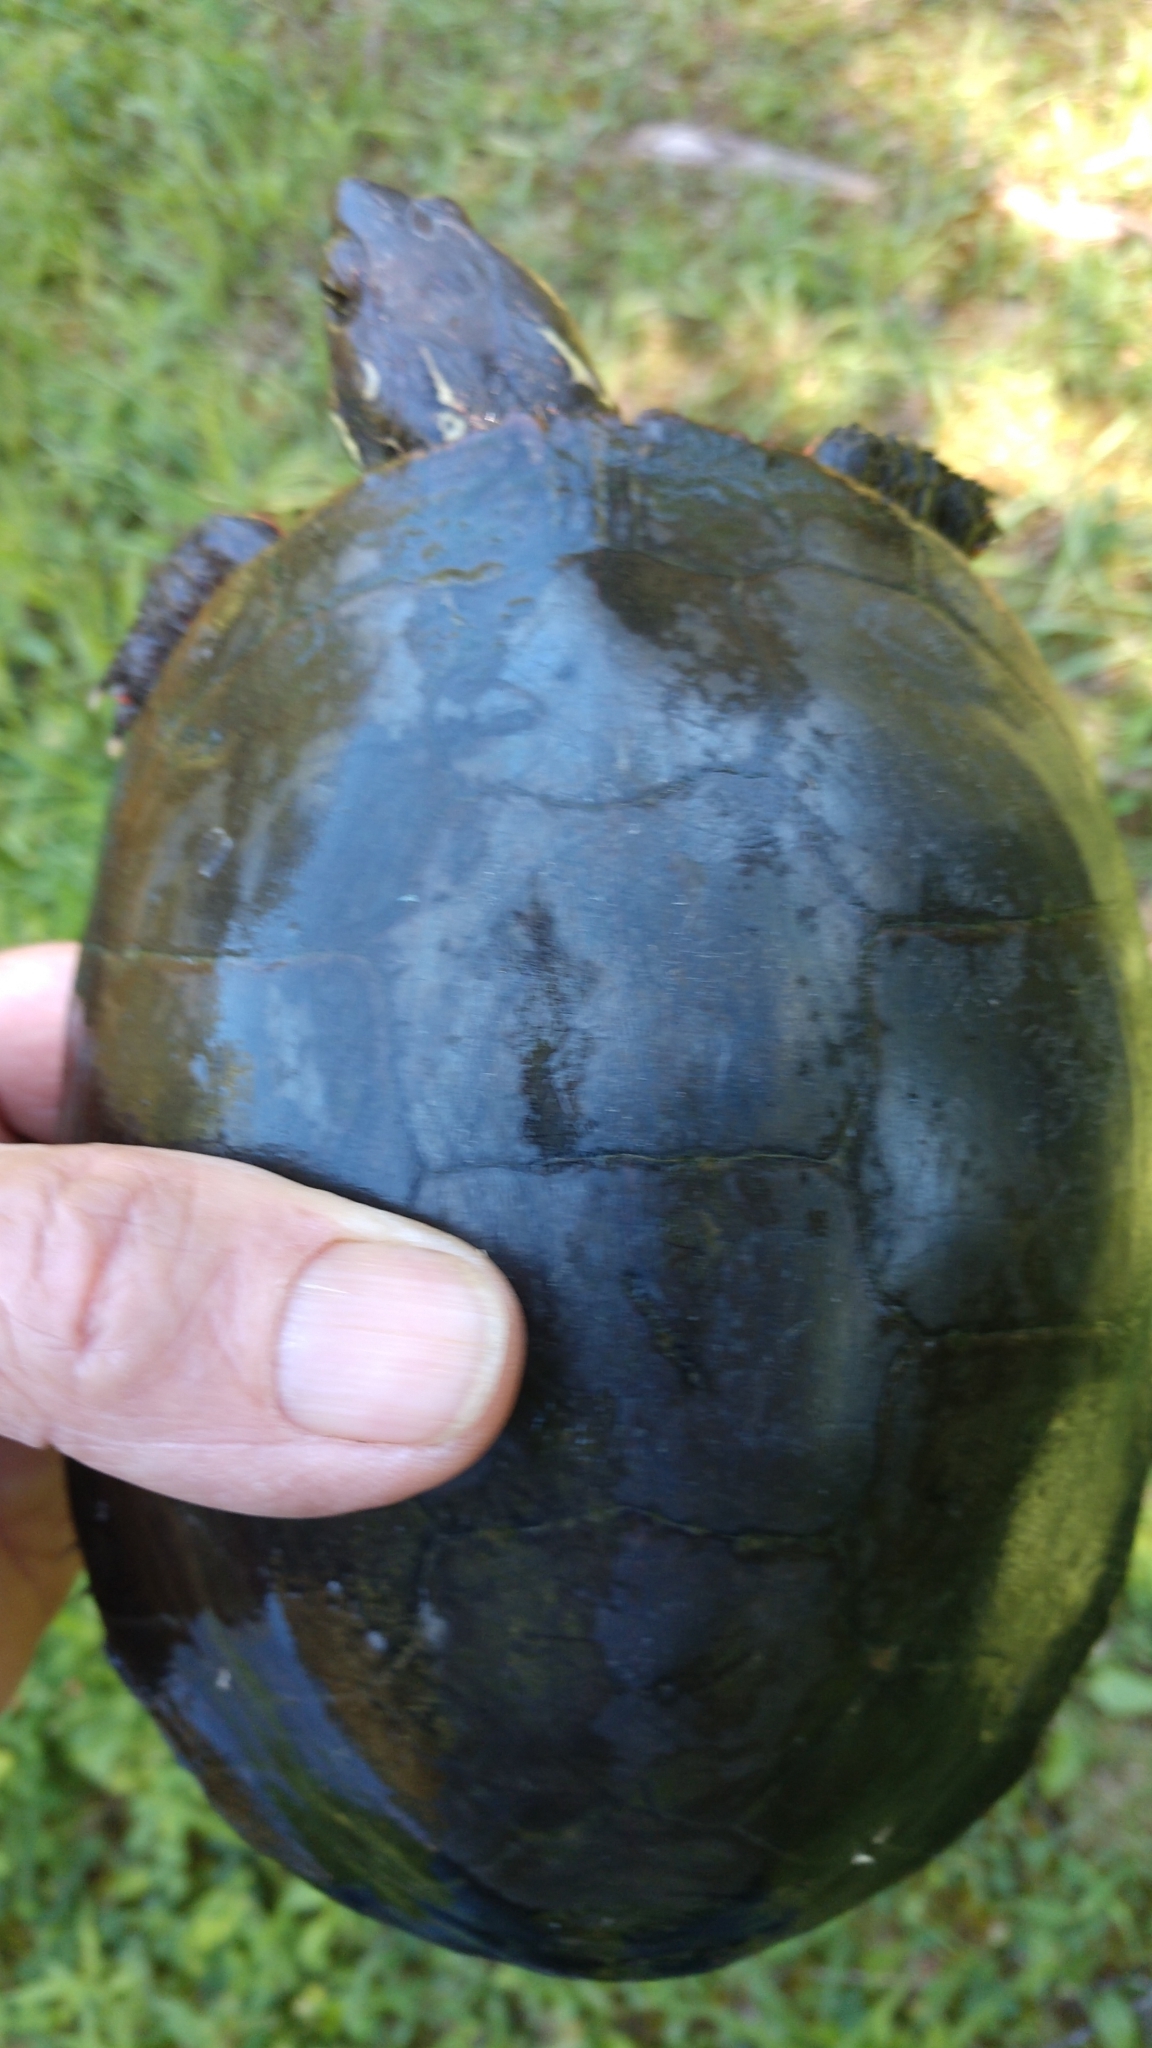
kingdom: Animalia
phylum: Chordata
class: Testudines
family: Emydidae
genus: Chrysemys
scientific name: Chrysemys picta
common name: Painted turtle
